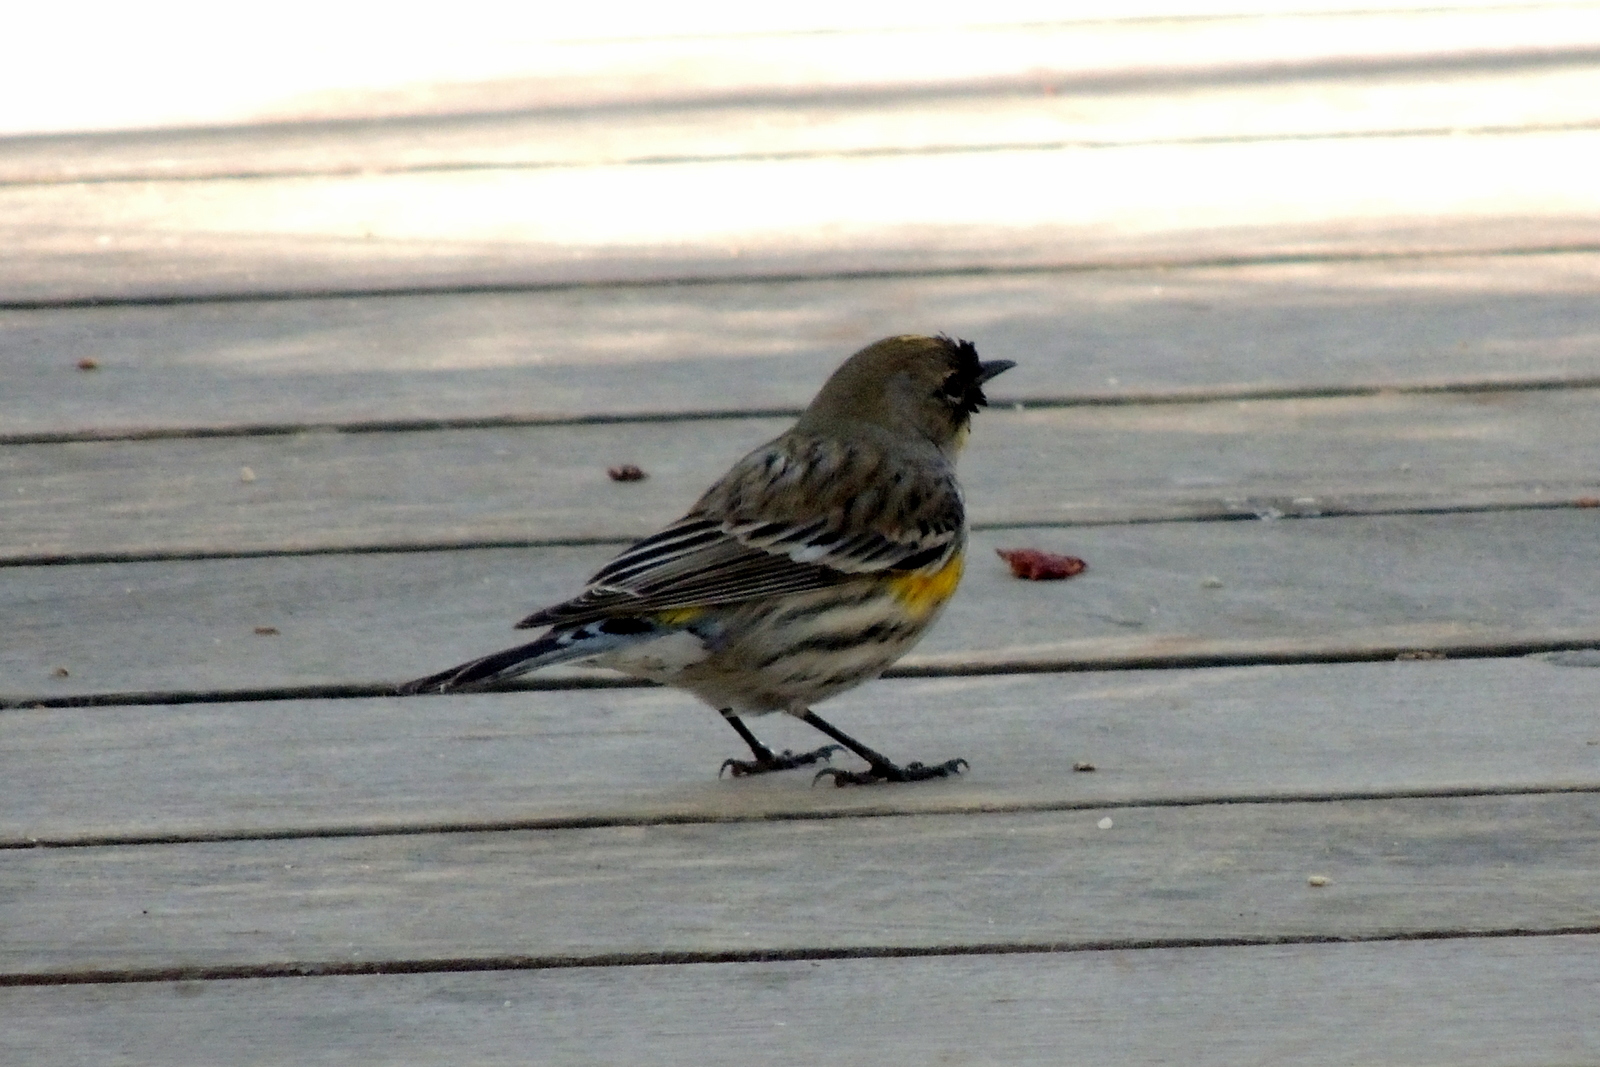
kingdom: Animalia
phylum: Chordata
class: Aves
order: Passeriformes
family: Parulidae
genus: Setophaga
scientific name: Setophaga coronata
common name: Myrtle warbler
